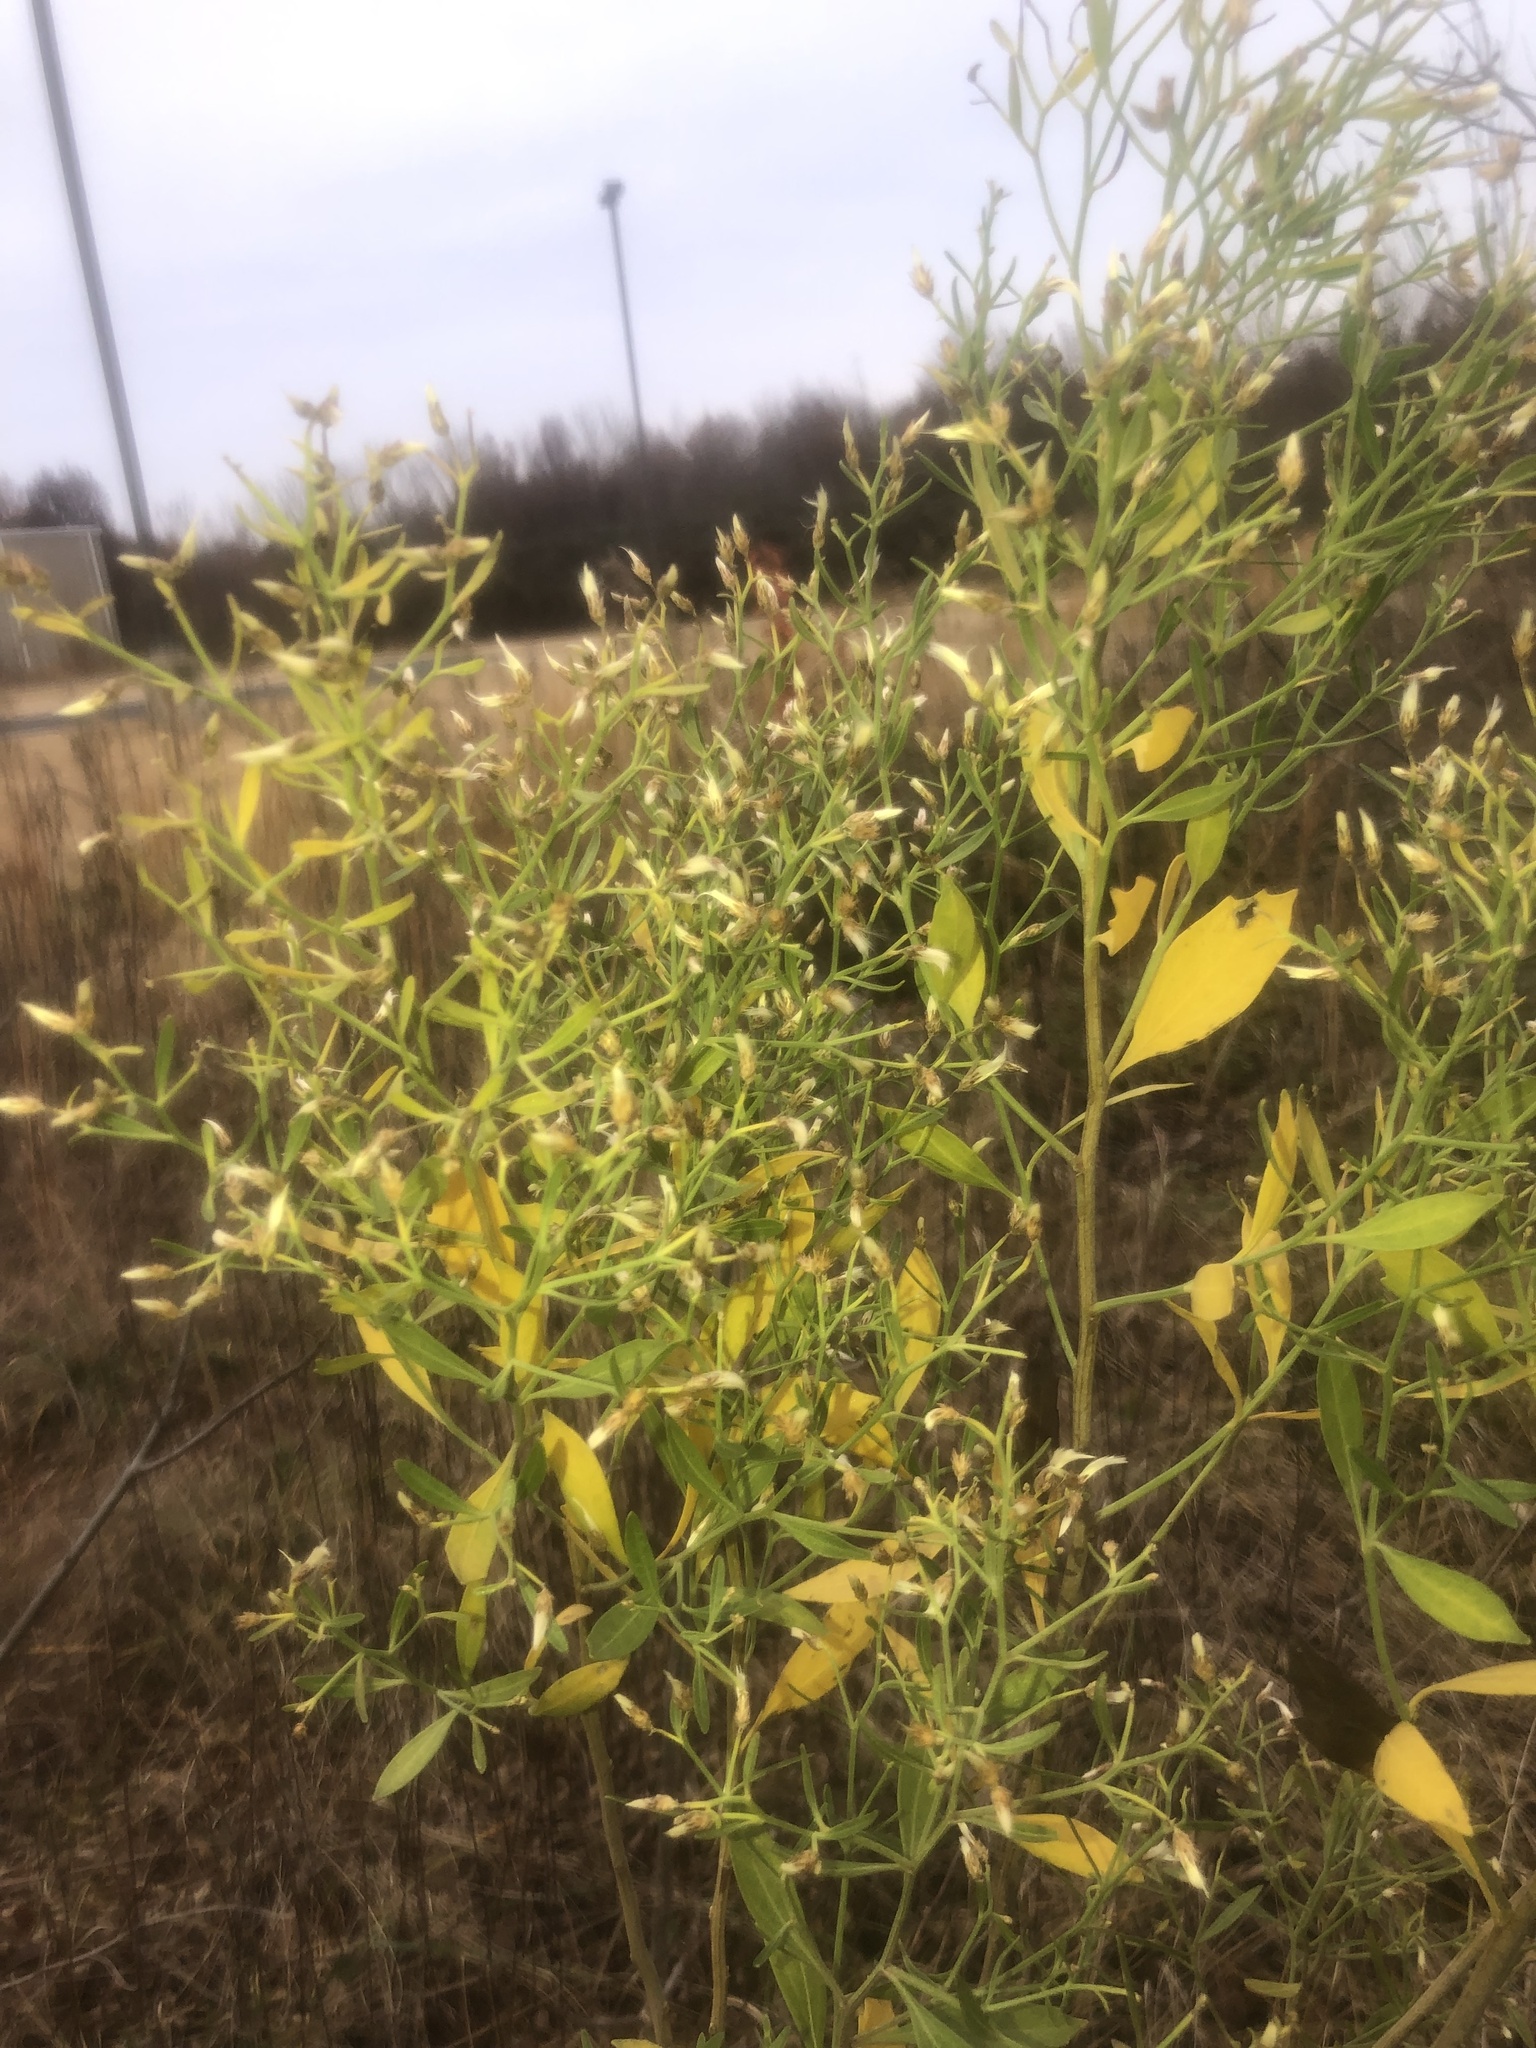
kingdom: Plantae
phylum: Tracheophyta
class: Magnoliopsida
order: Asterales
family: Asteraceae
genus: Baccharis
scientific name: Baccharis halimifolia
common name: Eastern baccharis
